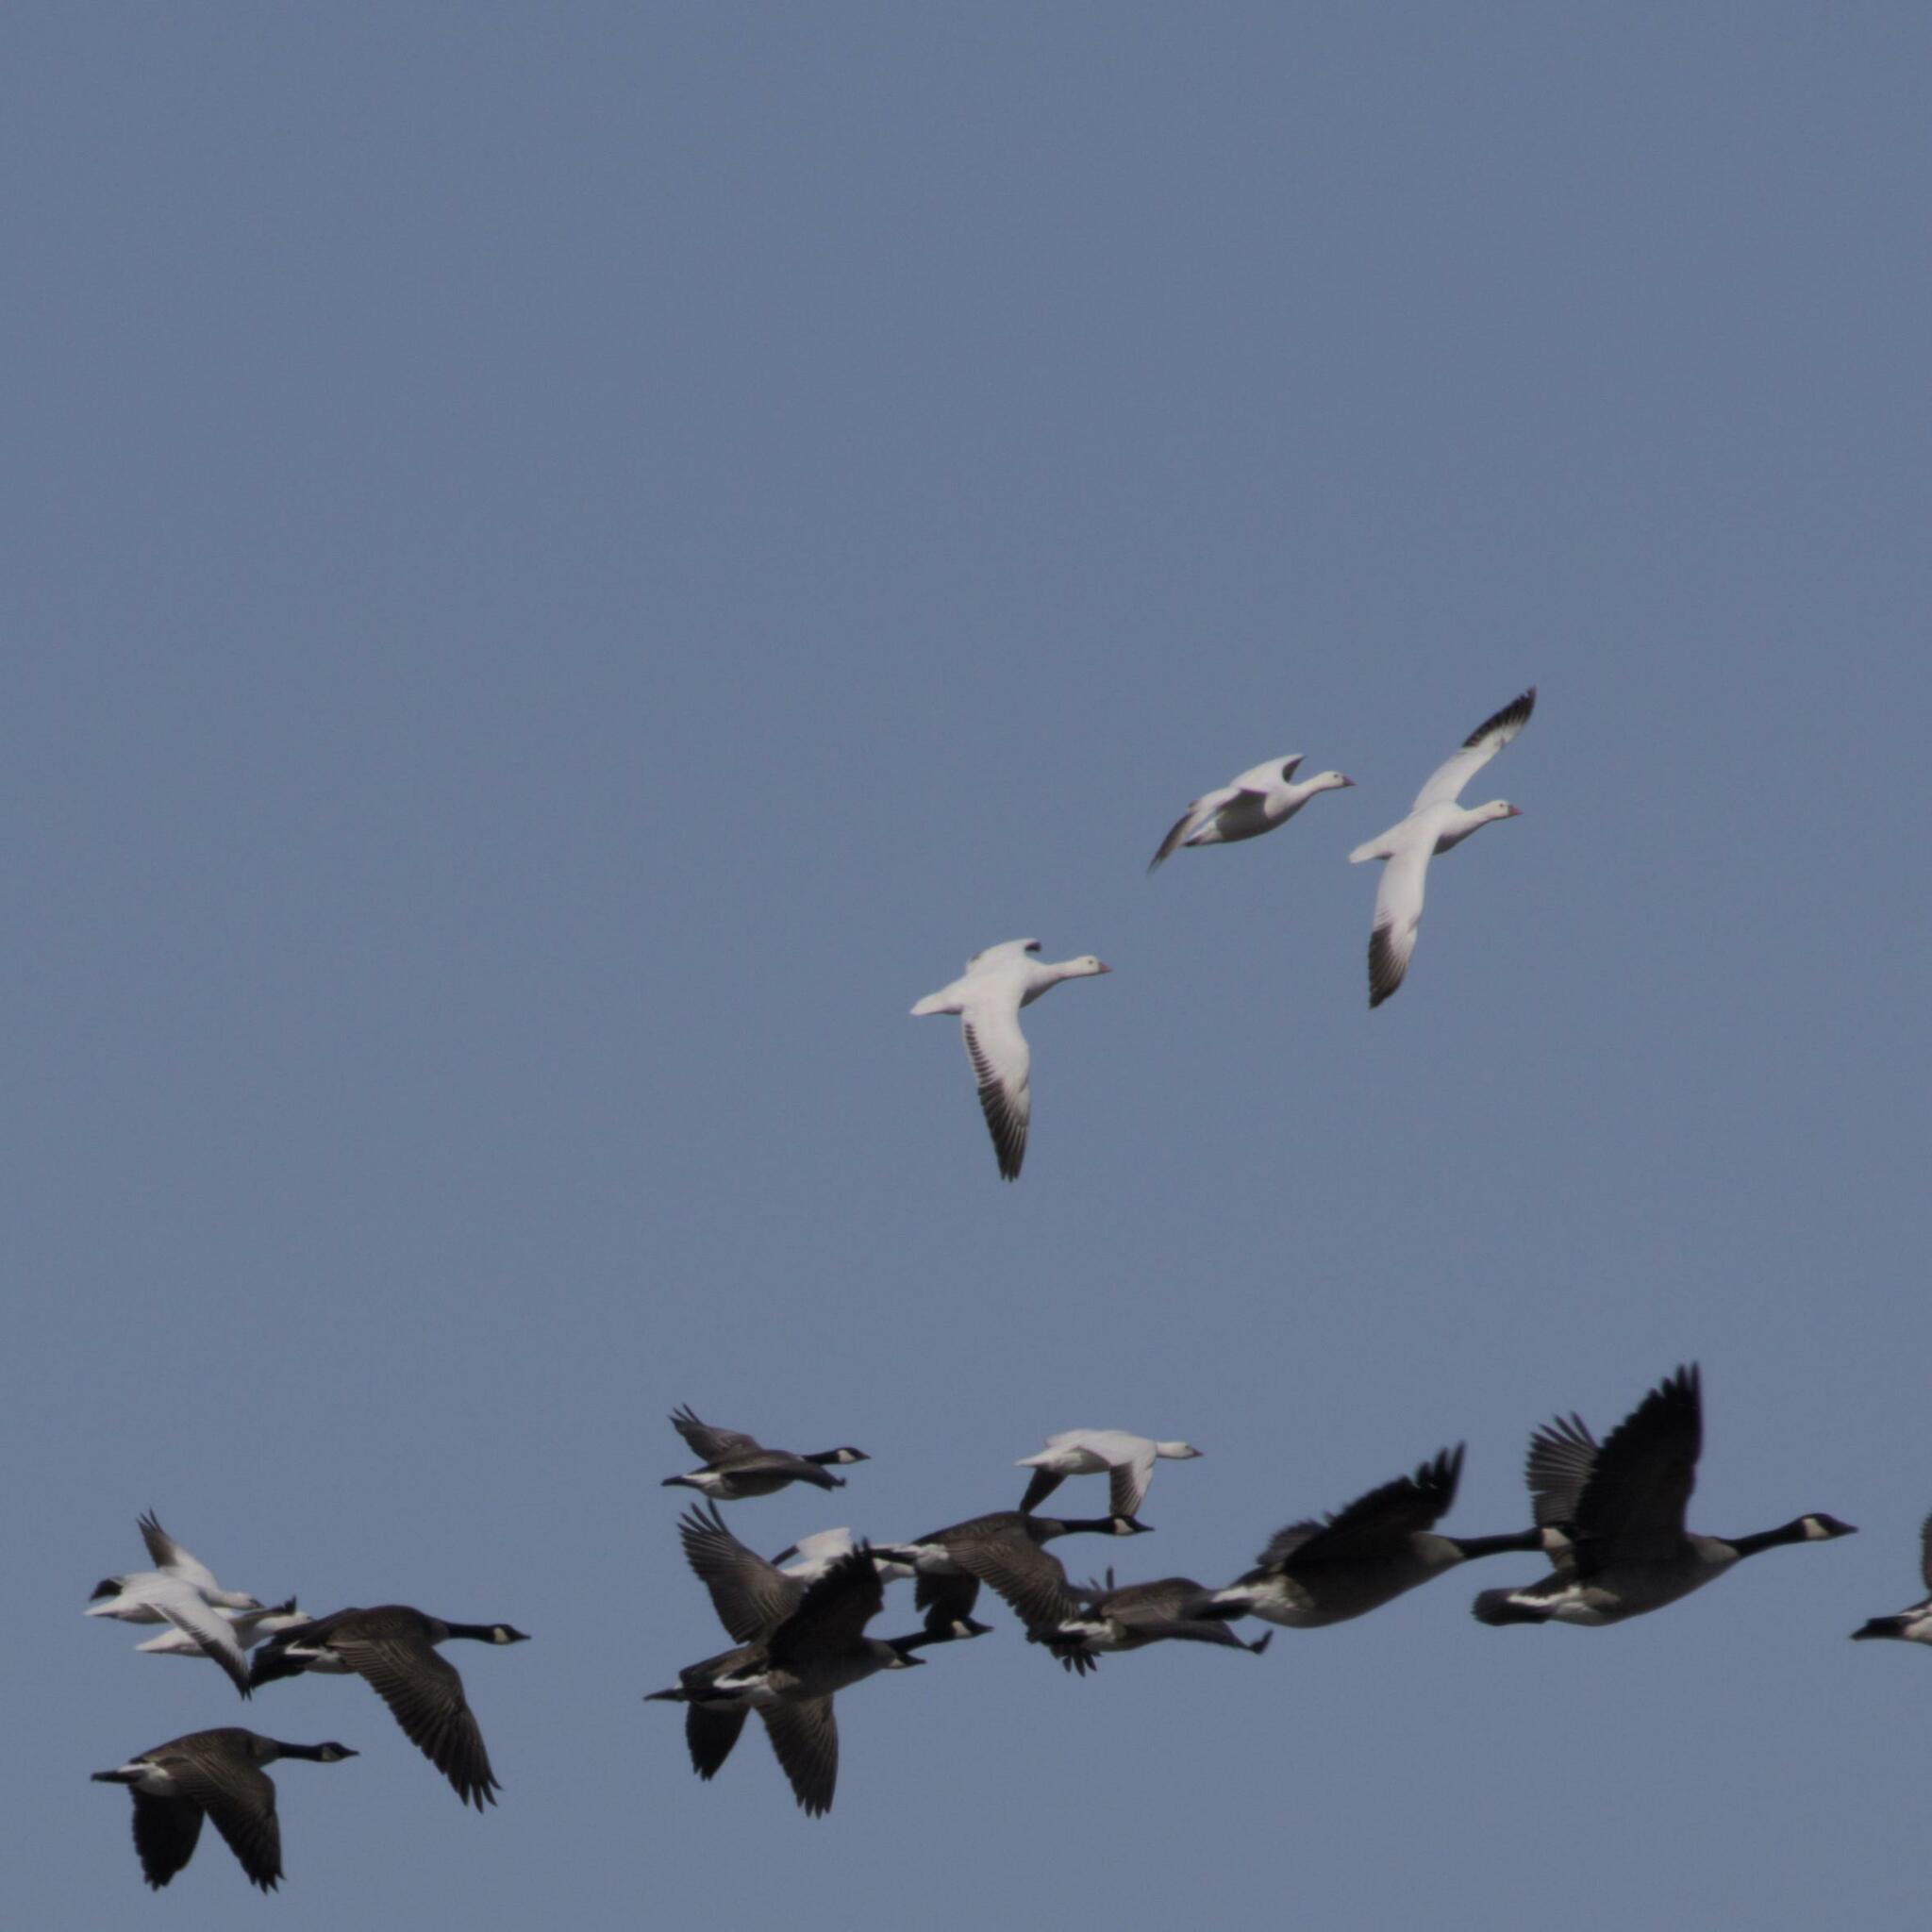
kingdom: Animalia
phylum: Chordata
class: Aves
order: Anseriformes
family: Anatidae
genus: Branta
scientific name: Branta canadensis
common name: Canada goose
